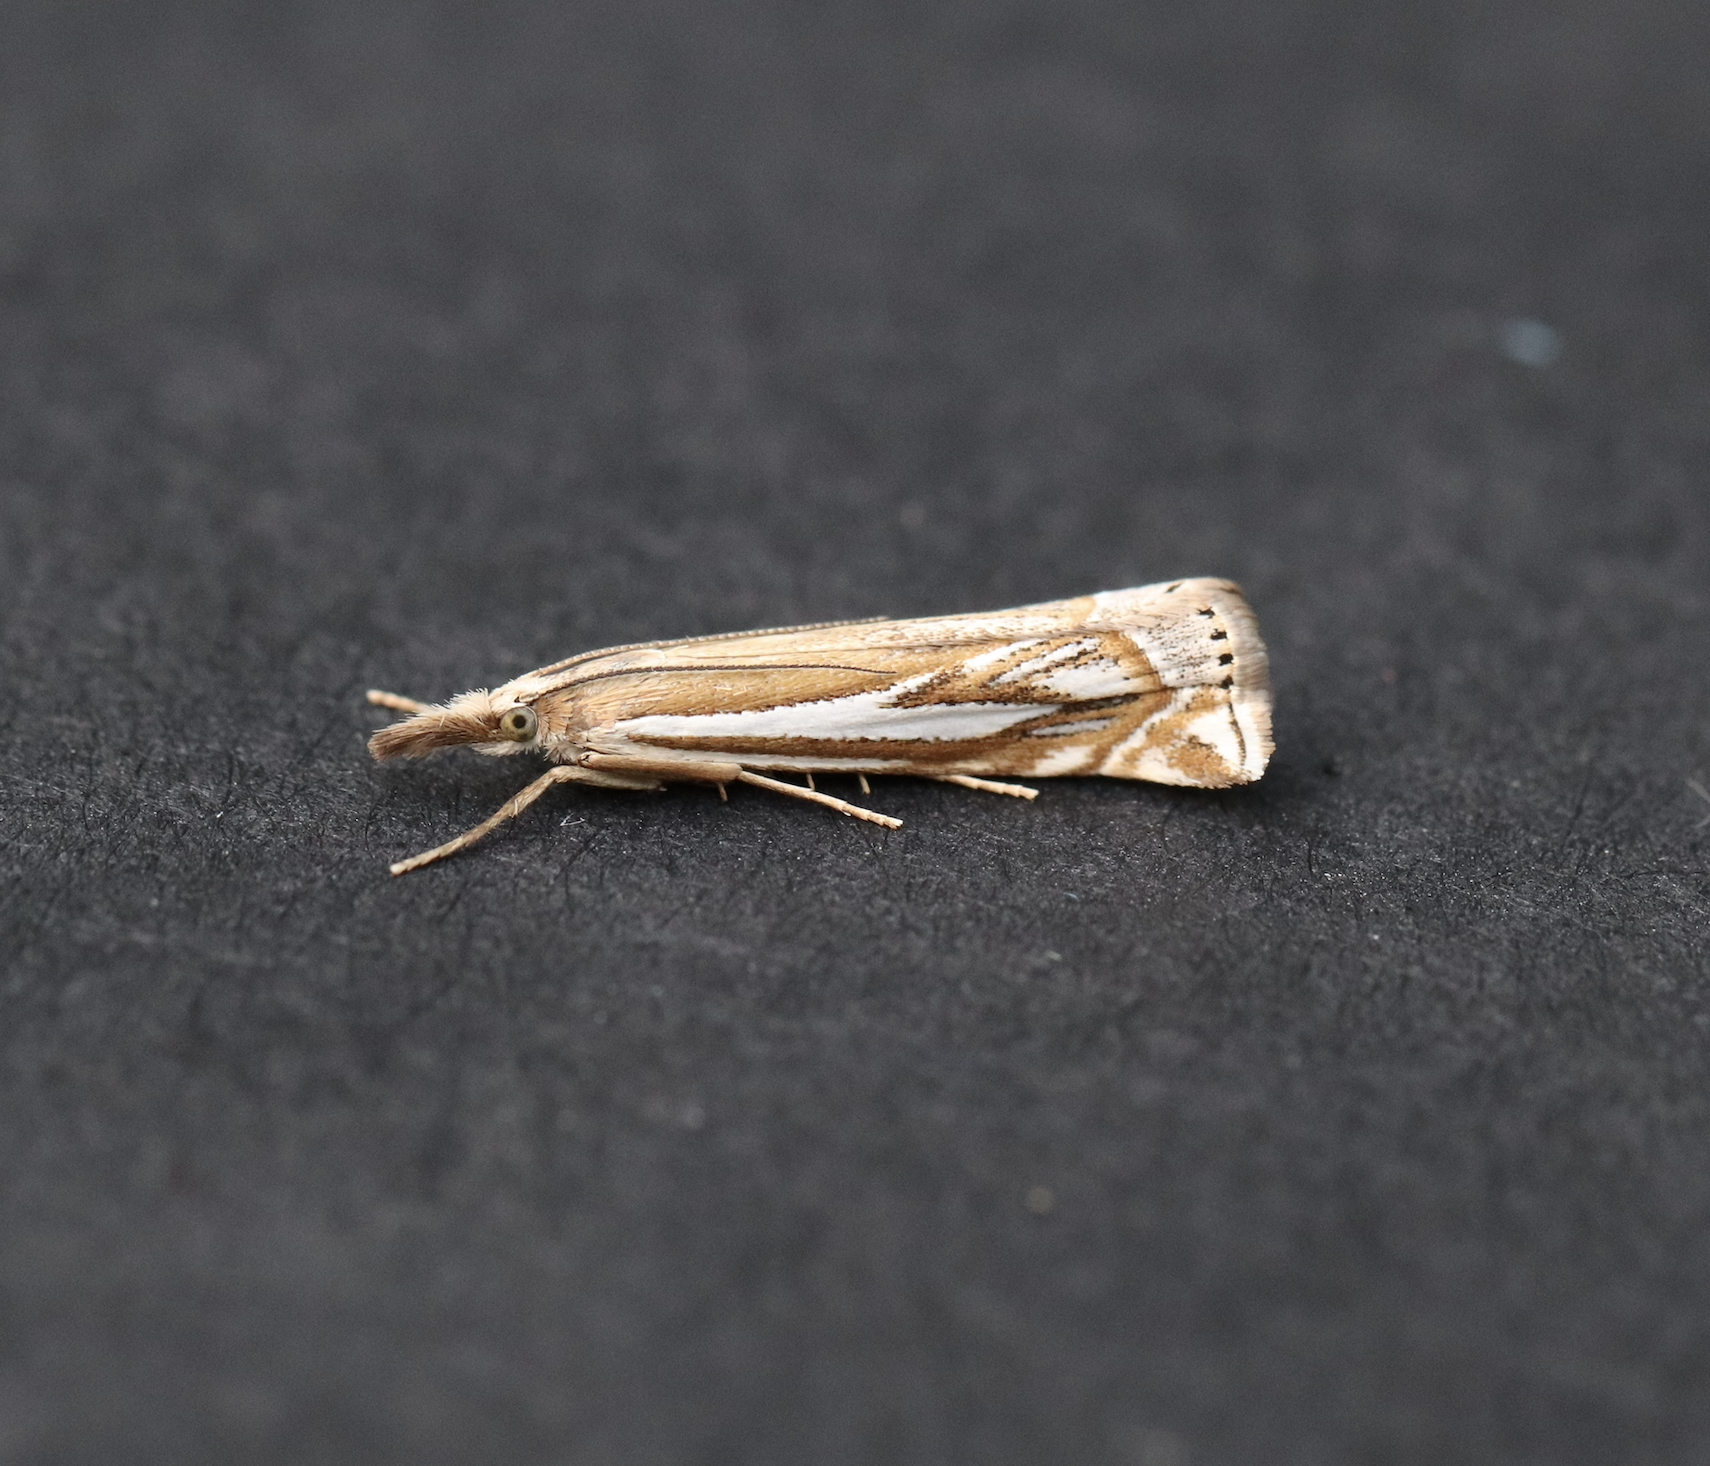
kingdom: Animalia
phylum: Arthropoda
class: Insecta
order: Lepidoptera
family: Crambidae
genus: Crambus
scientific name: Crambus whitmerellus
